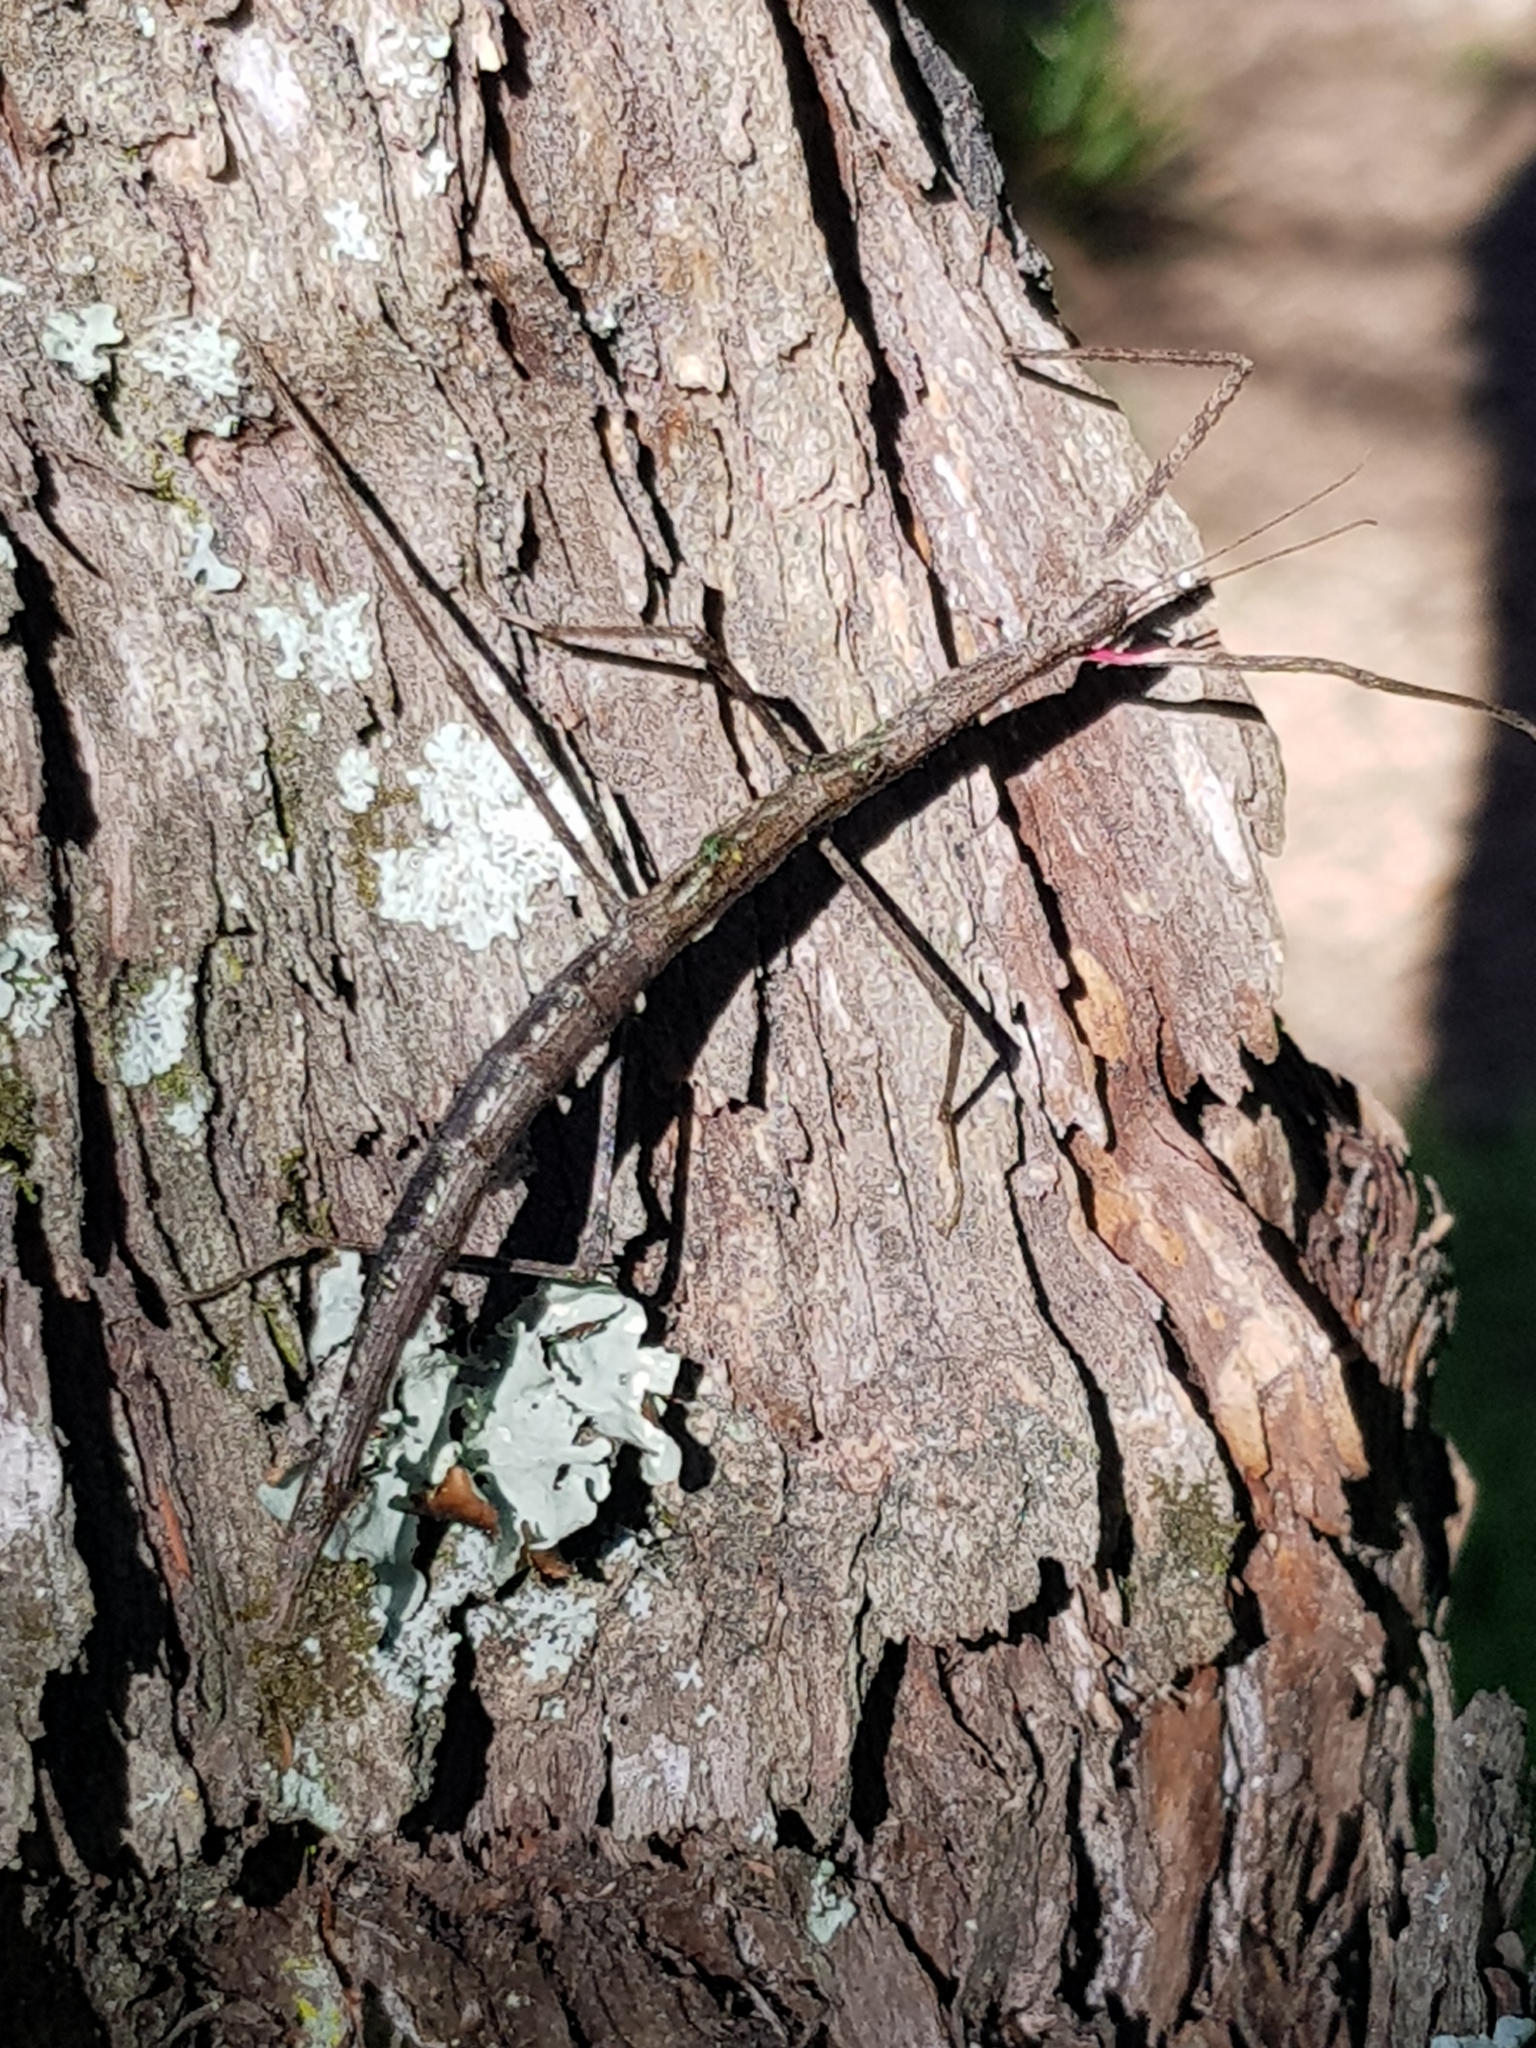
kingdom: Animalia
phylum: Arthropoda
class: Insecta
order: Phasmida
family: Phasmatidae
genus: Clitarchus
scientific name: Clitarchus hookeri
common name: Smooth stick insect
